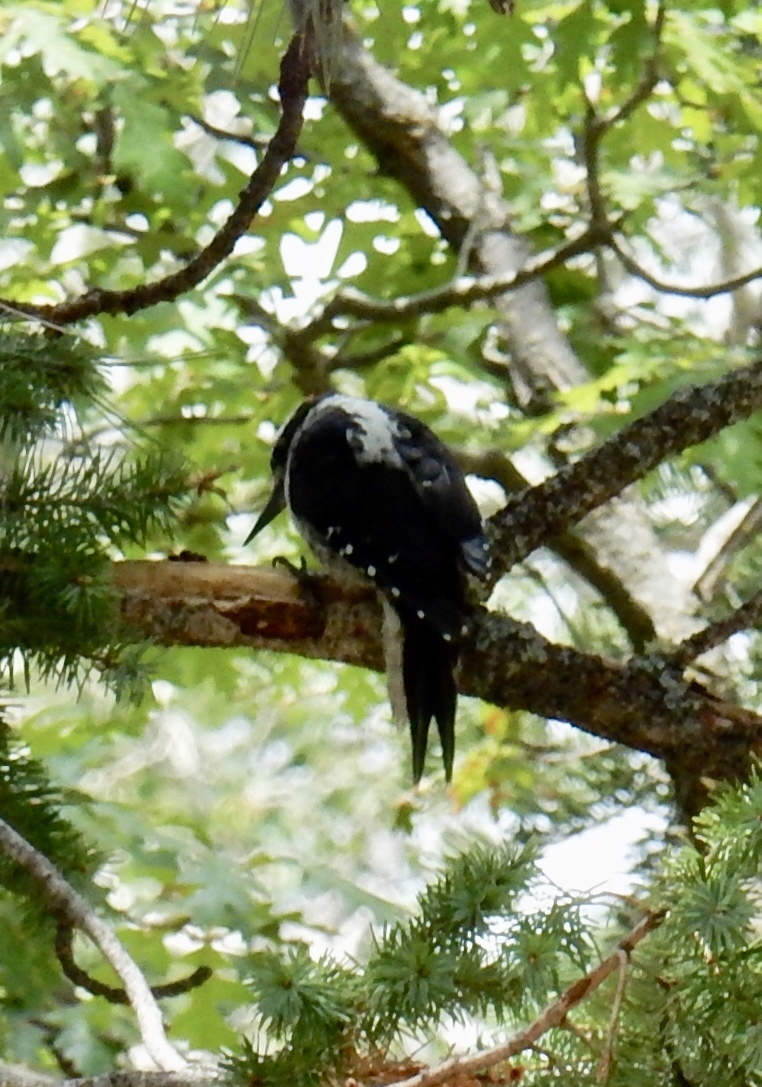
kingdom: Animalia
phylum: Chordata
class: Aves
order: Piciformes
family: Picidae
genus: Leuconotopicus
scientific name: Leuconotopicus villosus
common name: Hairy woodpecker
